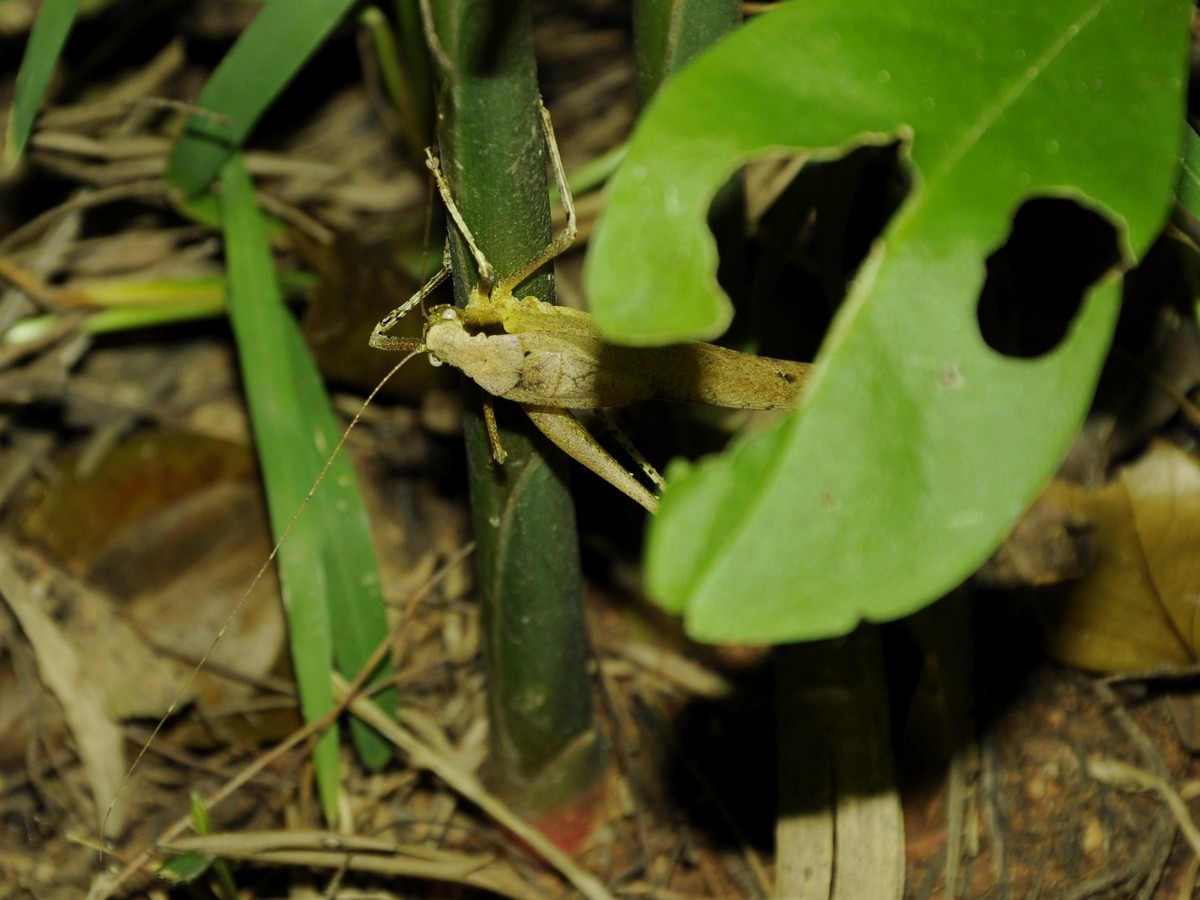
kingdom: Animalia
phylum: Arthropoda
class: Insecta
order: Orthoptera
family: Tettigoniidae
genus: Mecopoda
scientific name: Mecopoda elongata
